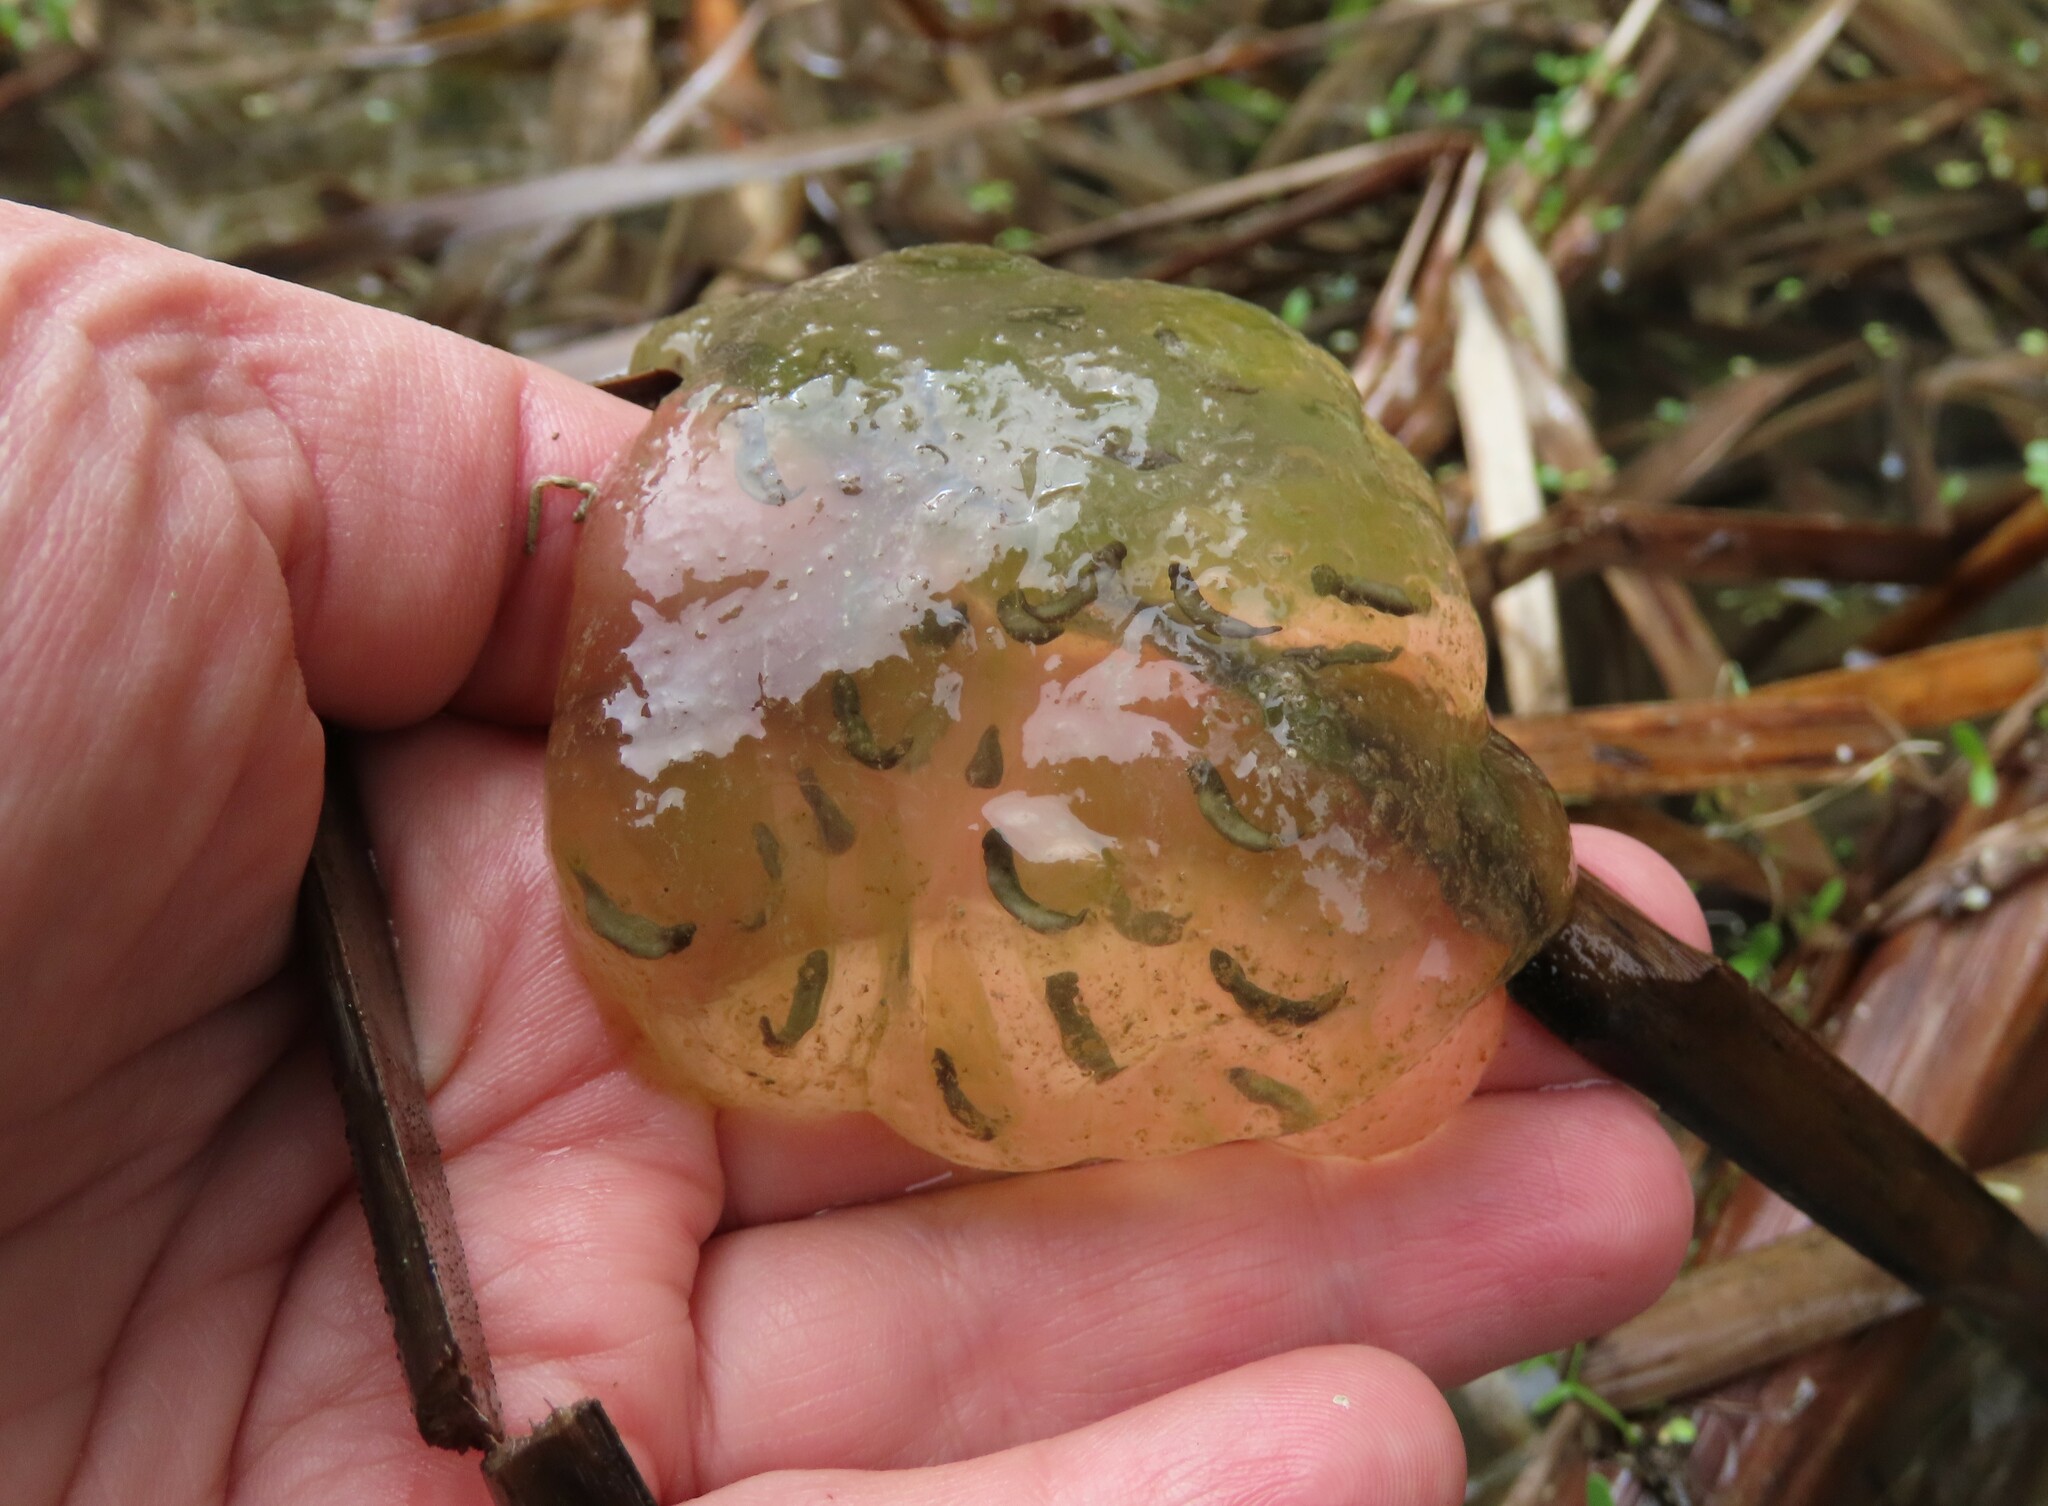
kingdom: Animalia
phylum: Chordata
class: Amphibia
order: Caudata
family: Ambystomatidae
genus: Ambystoma
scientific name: Ambystoma maculatum
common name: Spotted salamander
